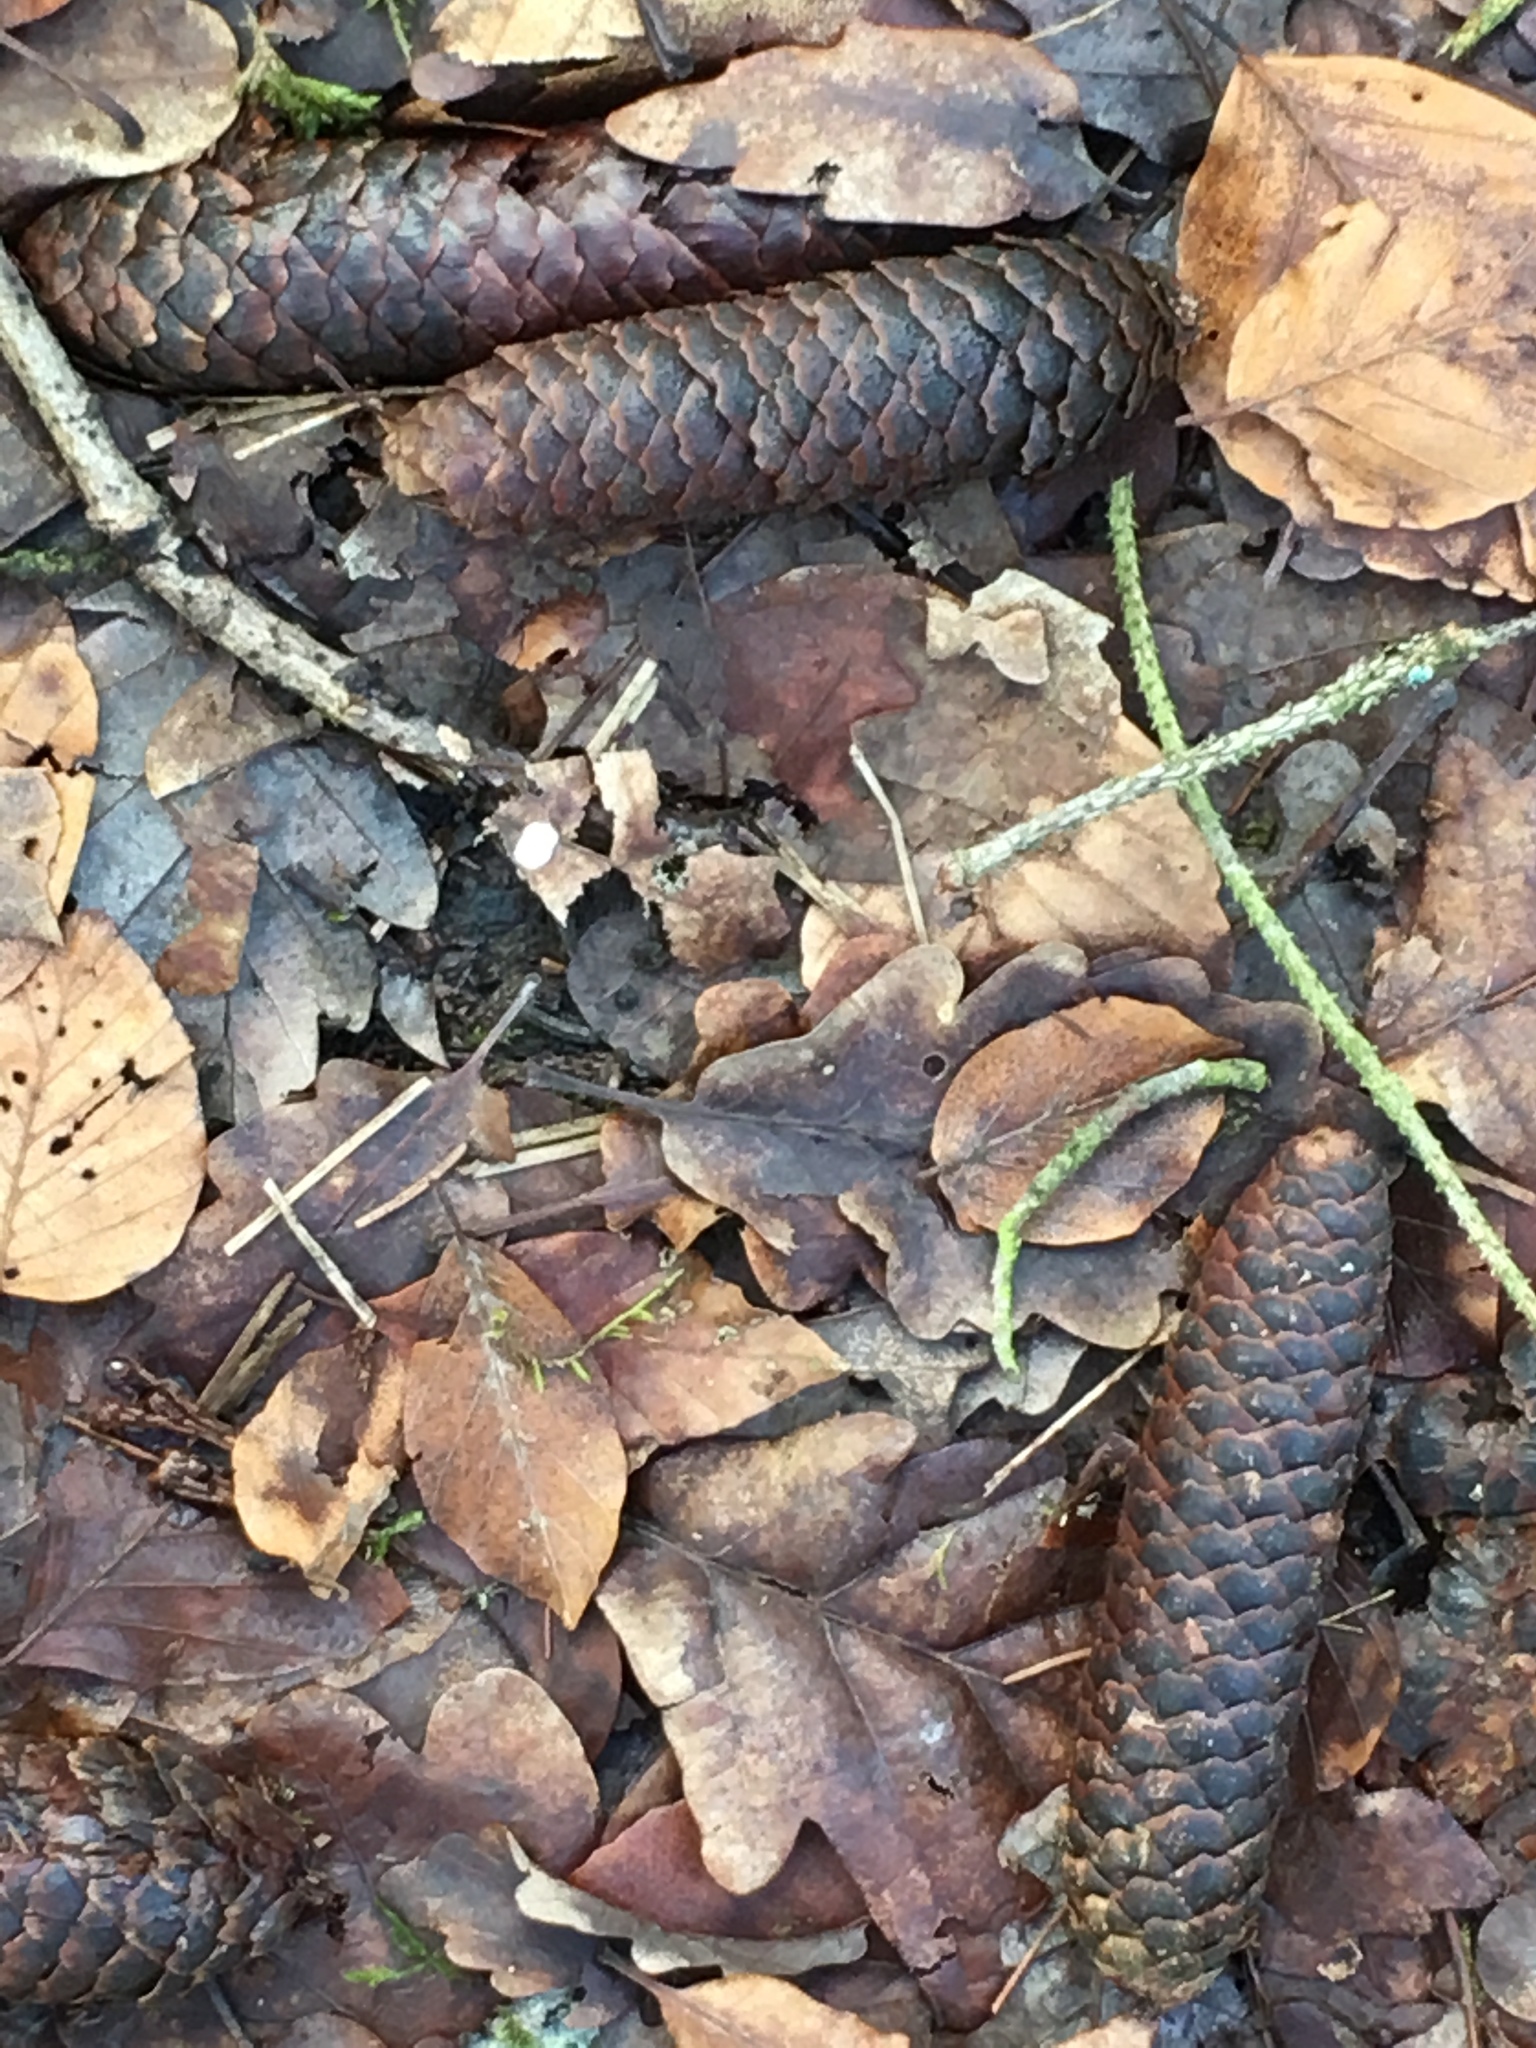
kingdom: Plantae
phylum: Tracheophyta
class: Pinopsida
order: Pinales
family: Pinaceae
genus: Picea
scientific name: Picea abies
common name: Norway spruce
